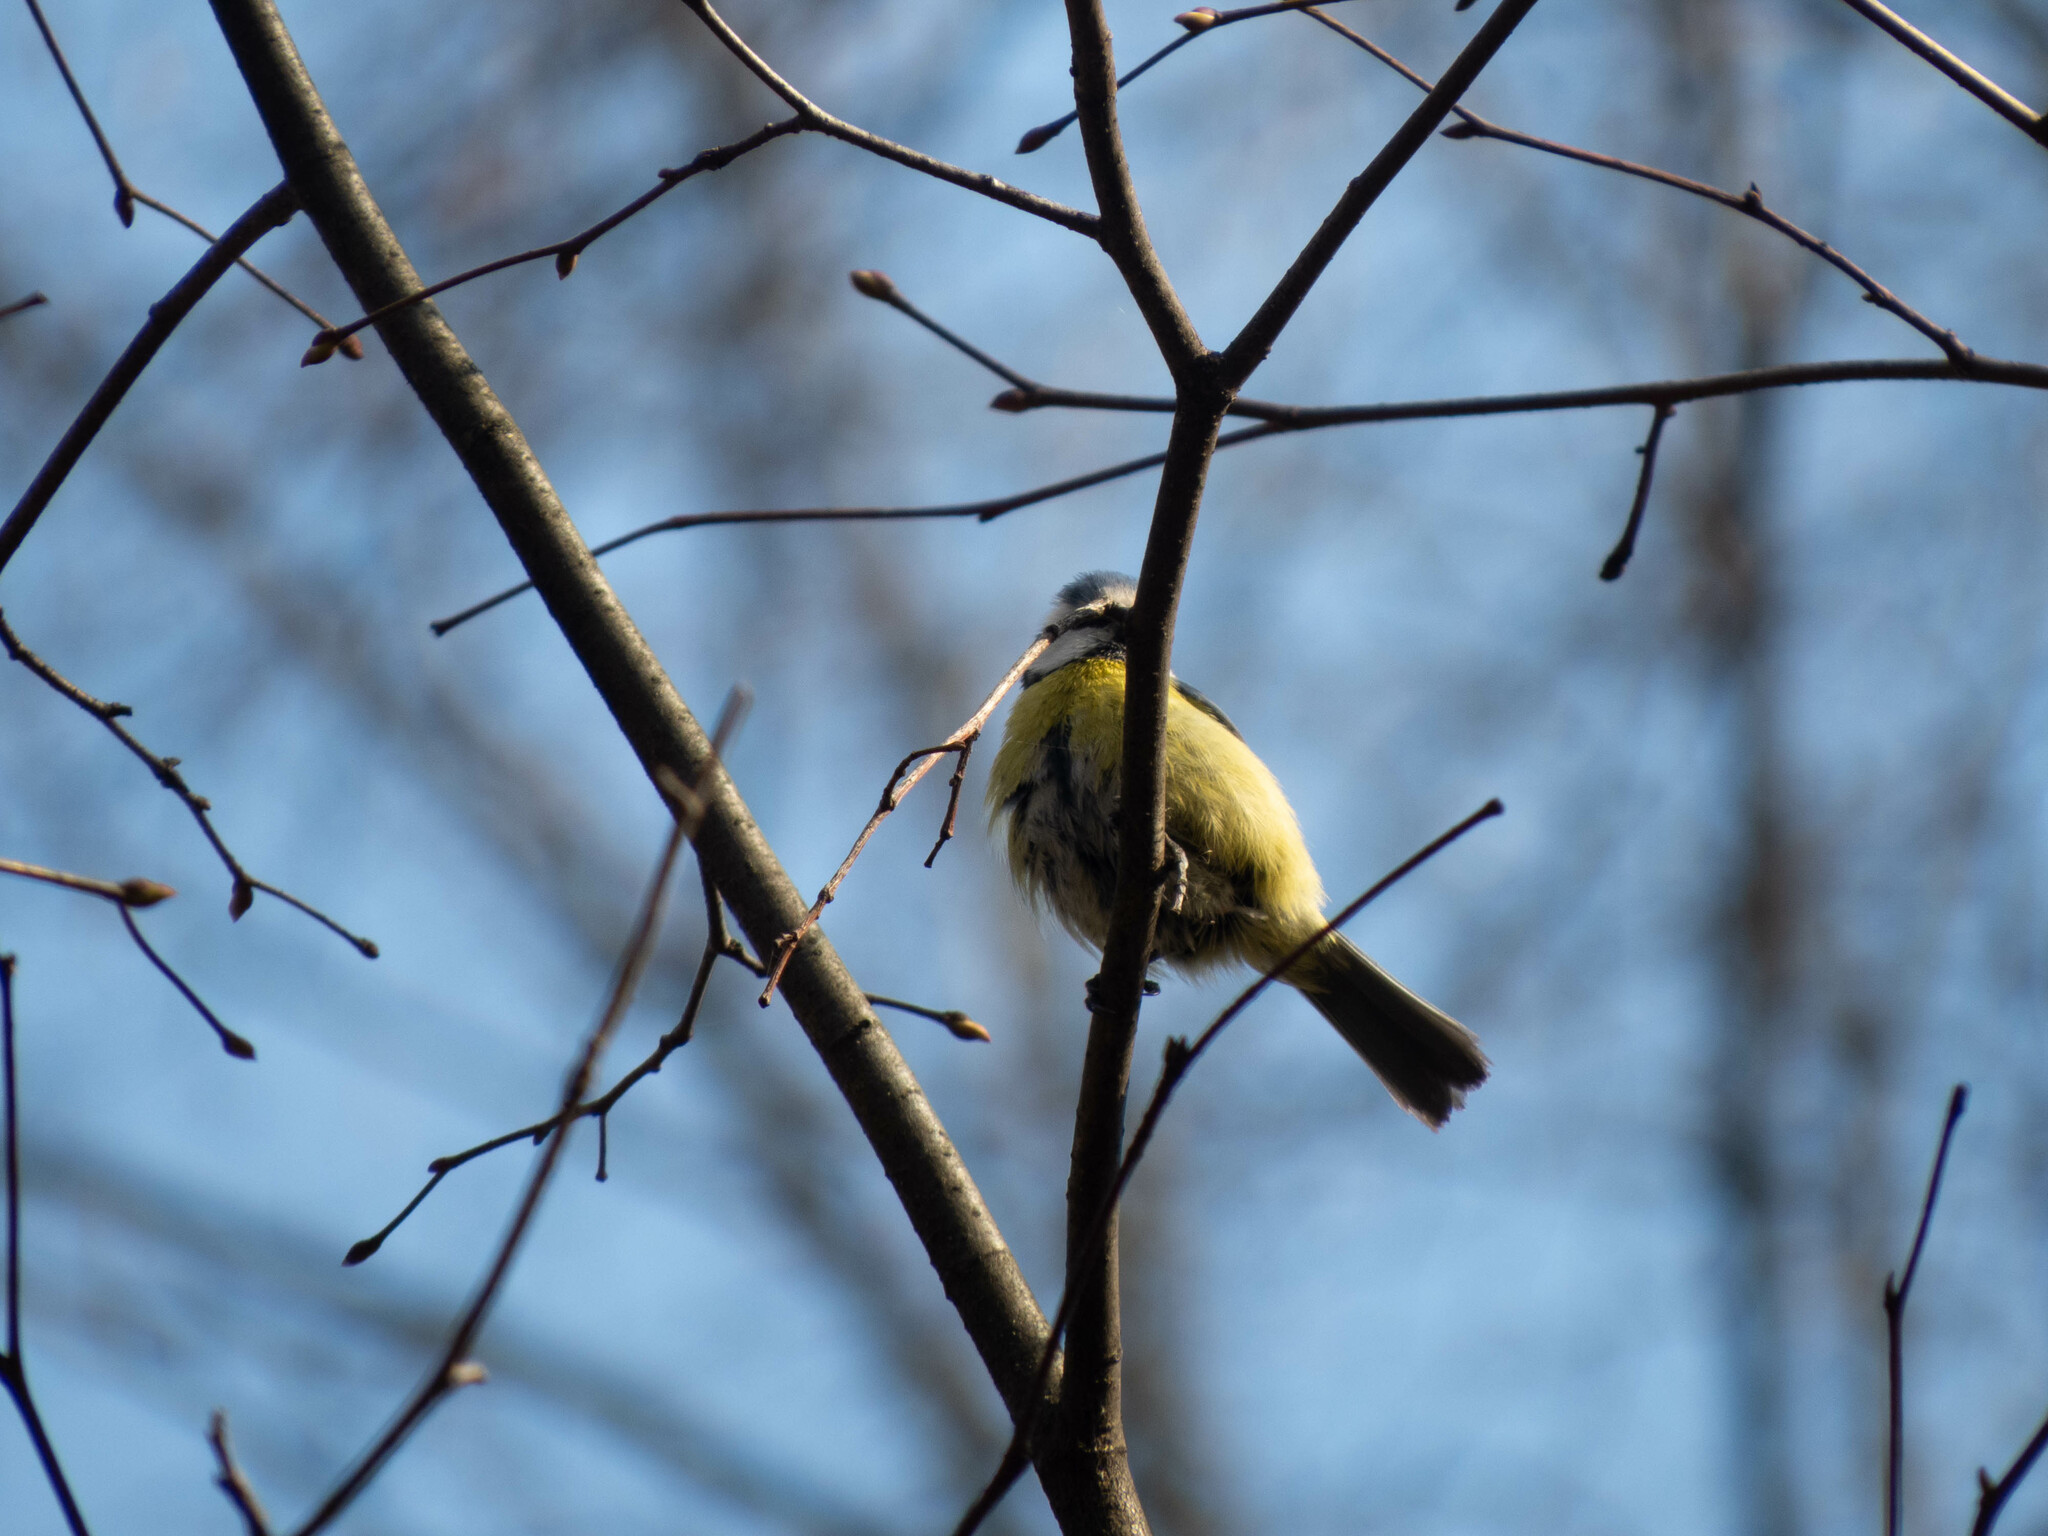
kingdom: Animalia
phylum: Chordata
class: Aves
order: Passeriformes
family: Paridae
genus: Cyanistes
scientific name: Cyanistes caeruleus
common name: Eurasian blue tit
